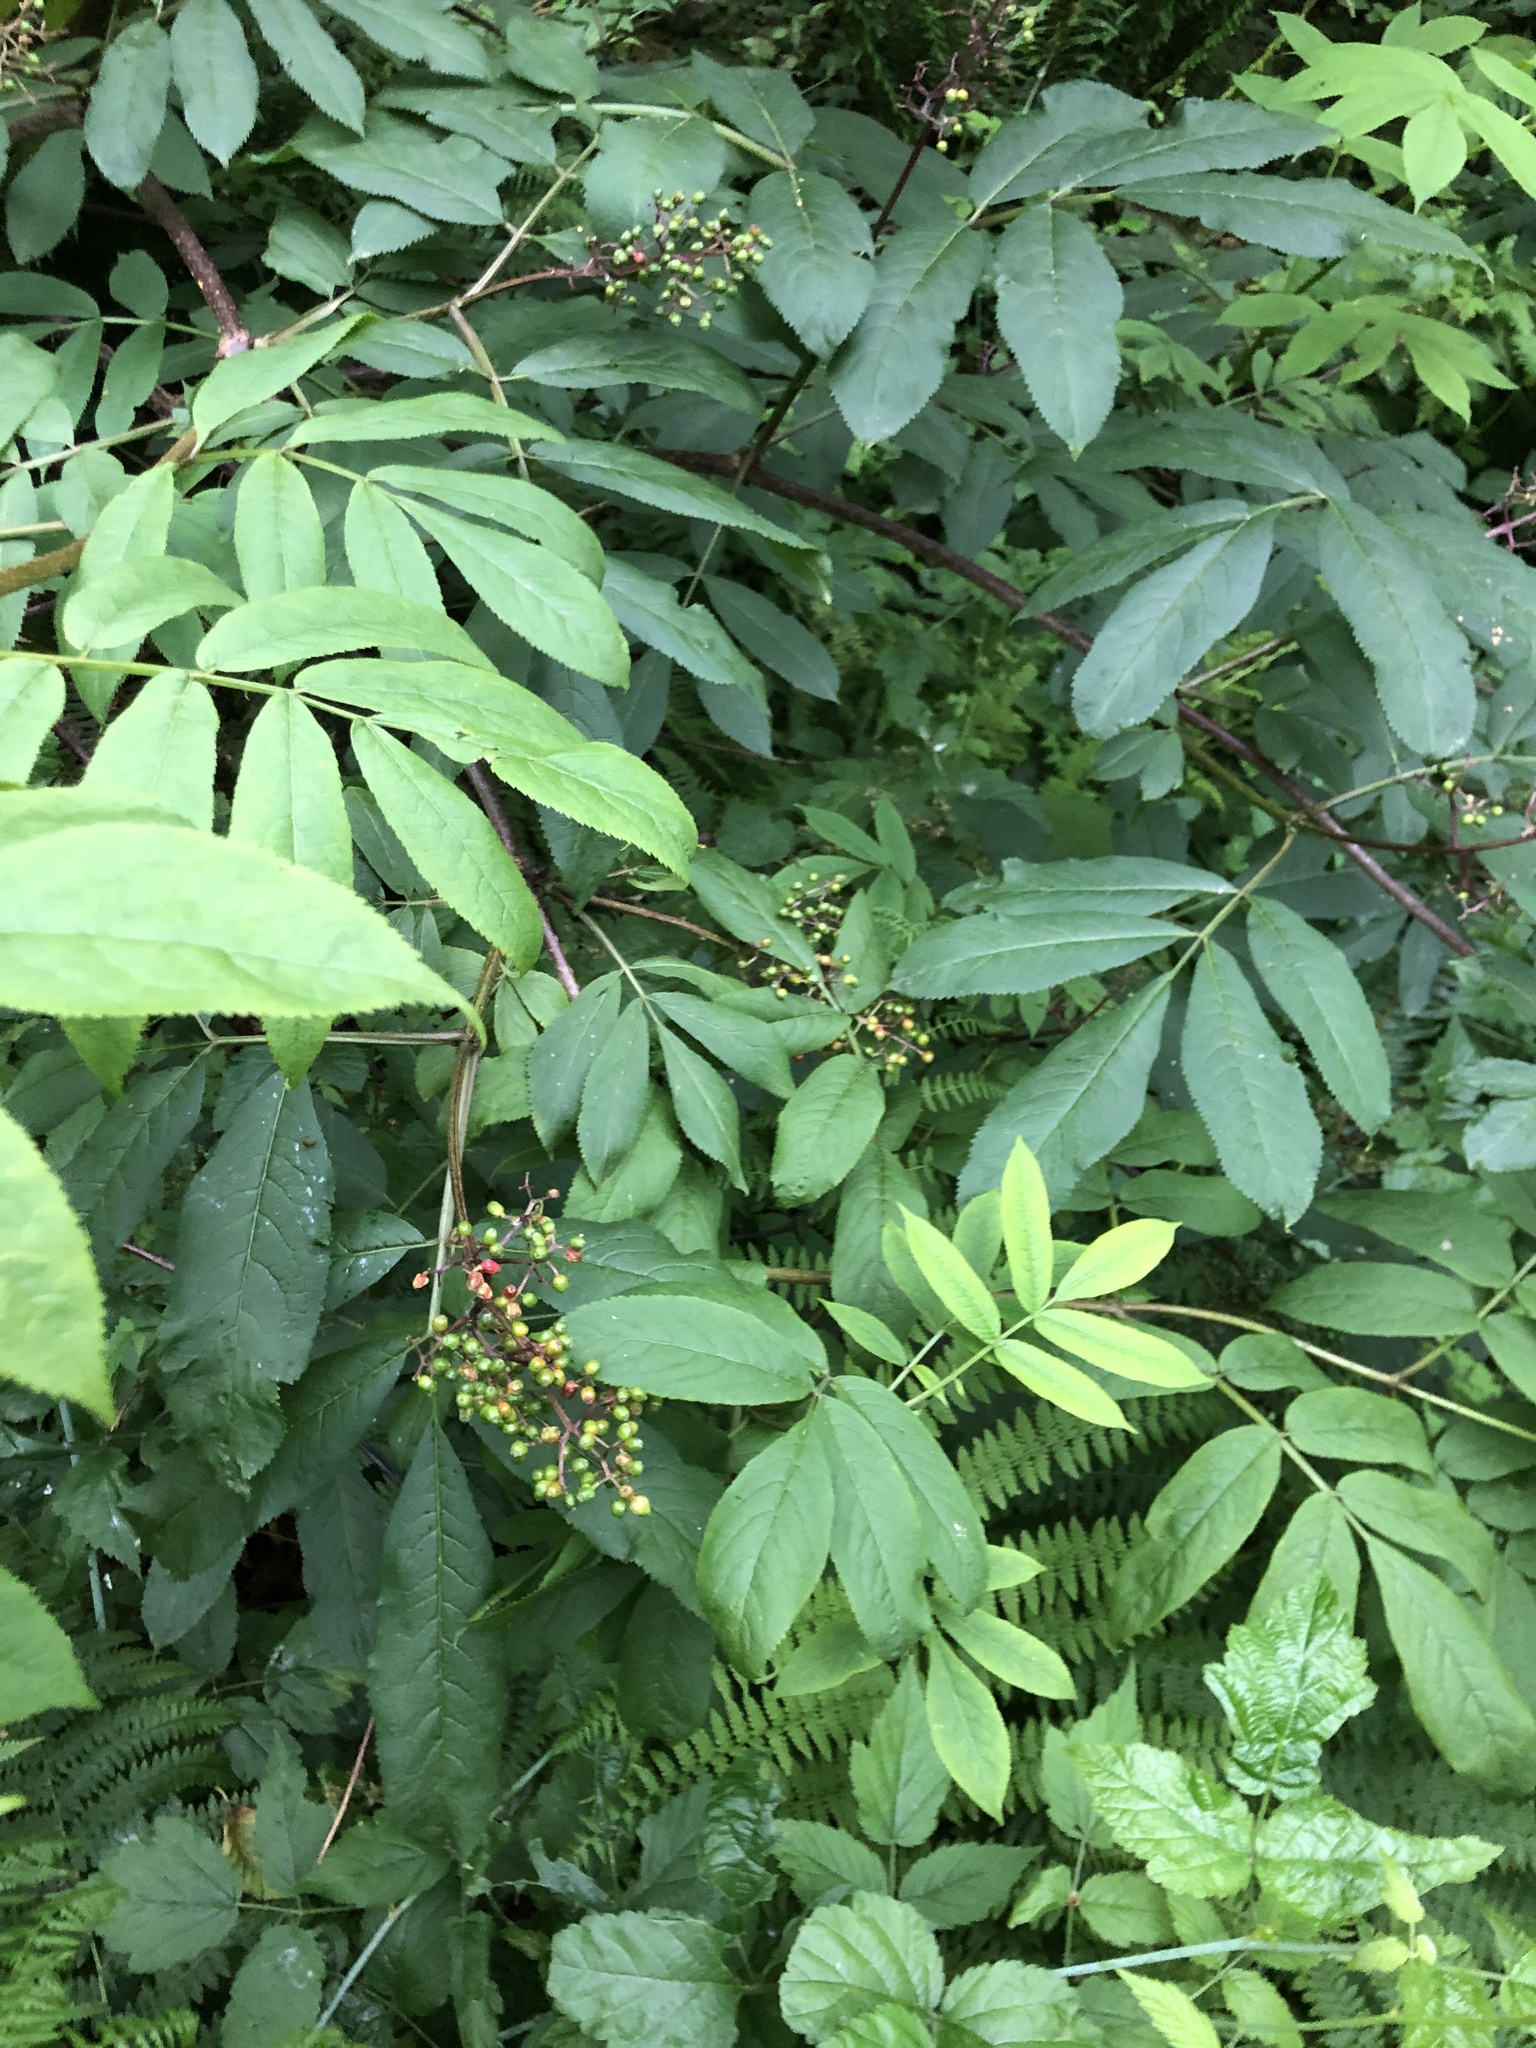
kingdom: Plantae
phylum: Tracheophyta
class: Magnoliopsida
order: Dipsacales
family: Viburnaceae
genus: Sambucus
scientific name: Sambucus racemosa
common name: Red-berried elder
